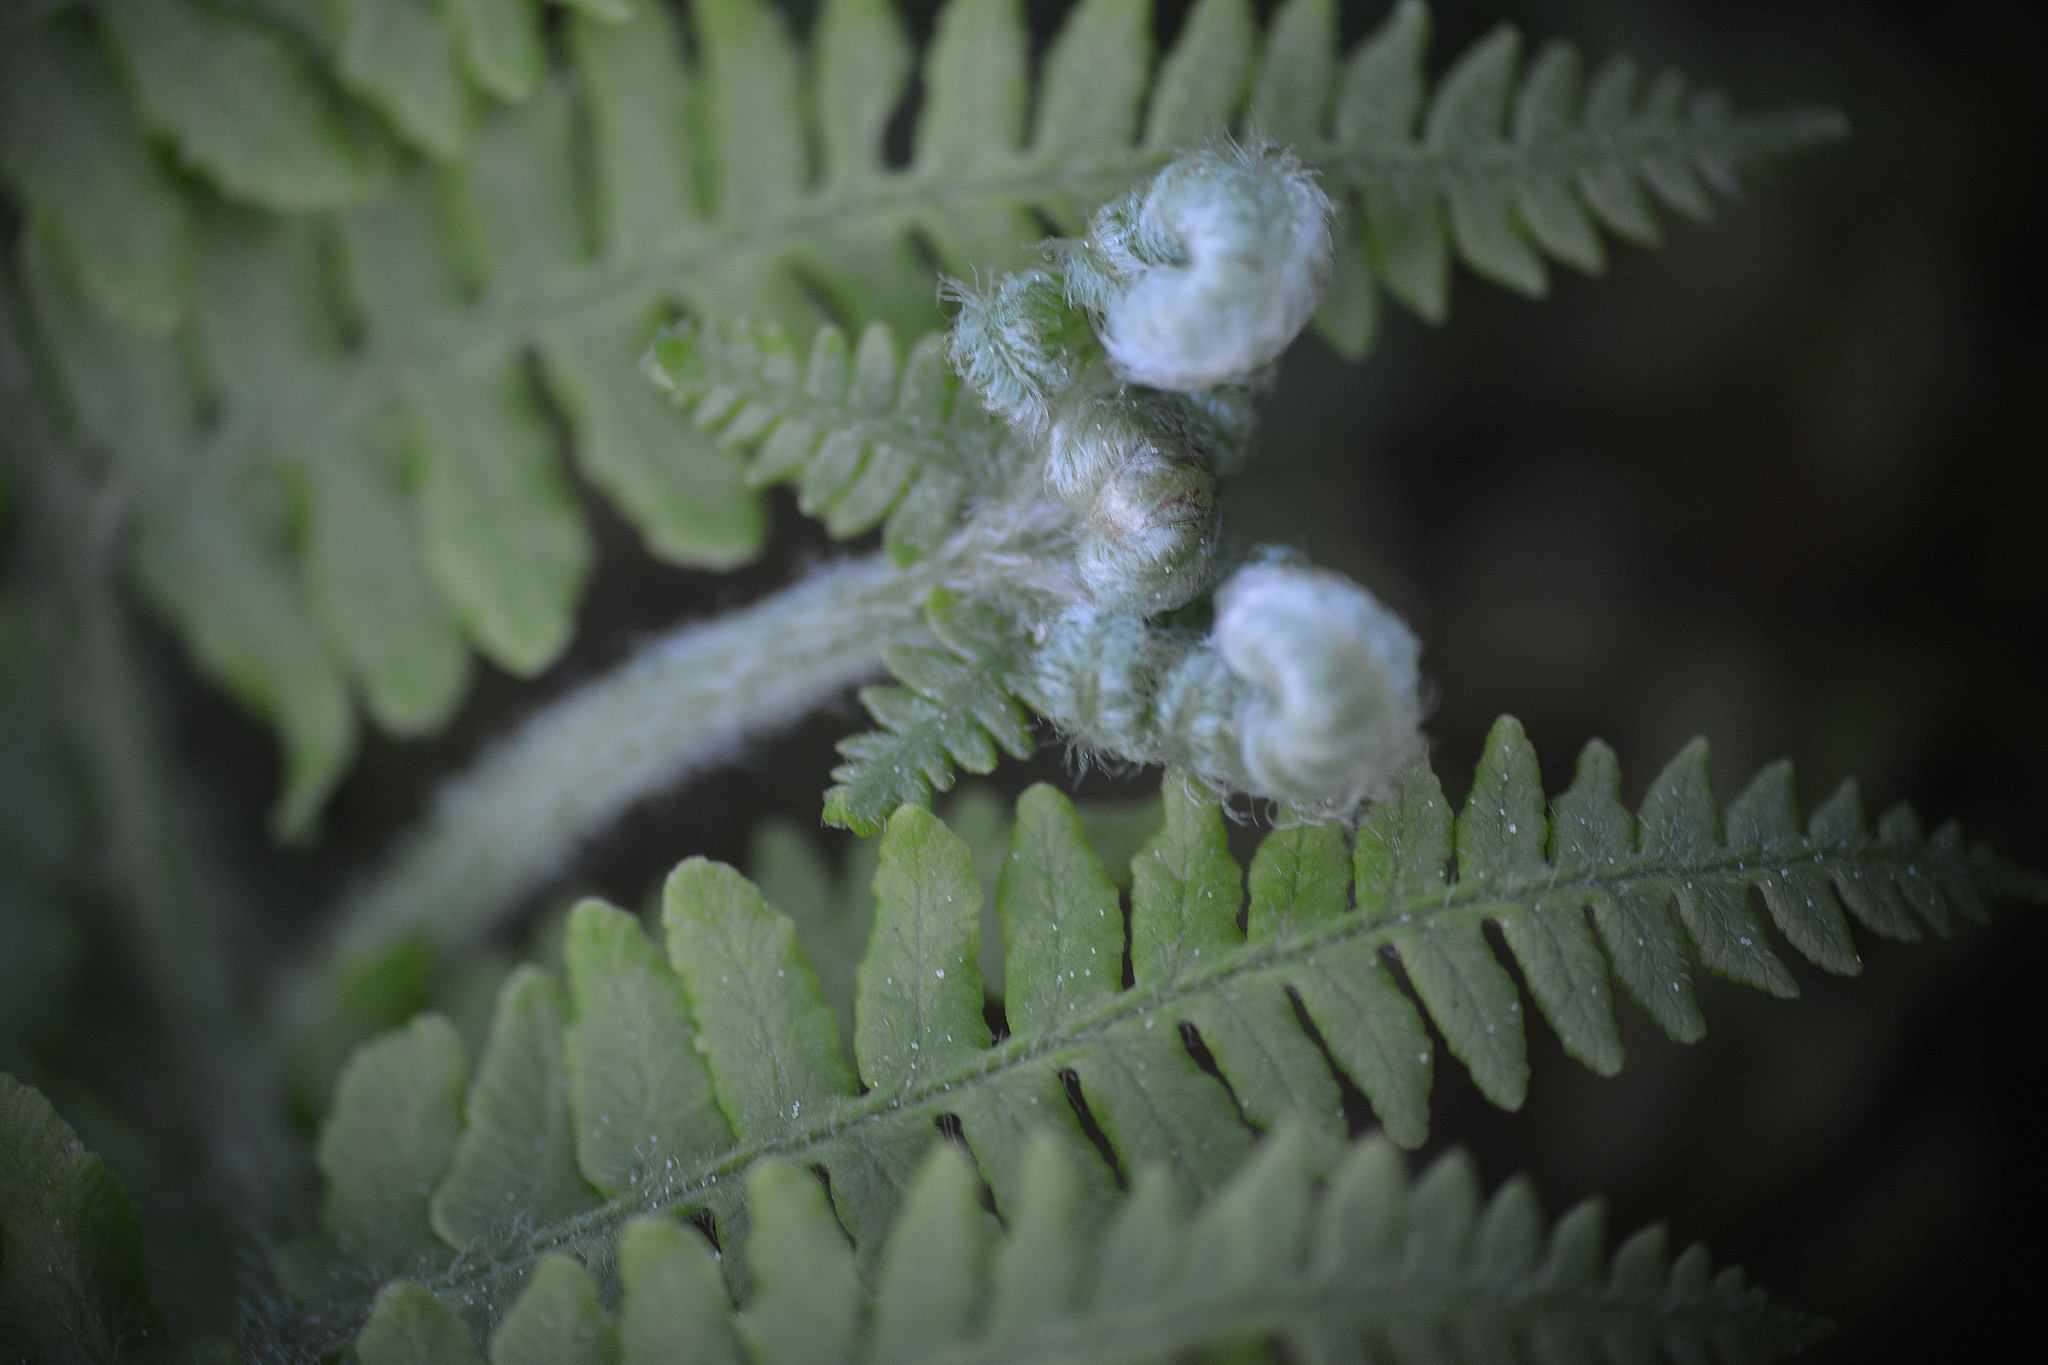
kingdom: Plantae
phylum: Tracheophyta
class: Polypodiopsida
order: Polypodiales
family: Dennstaedtiaceae
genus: Pteridium
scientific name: Pteridium aquilinum
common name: Bracken
